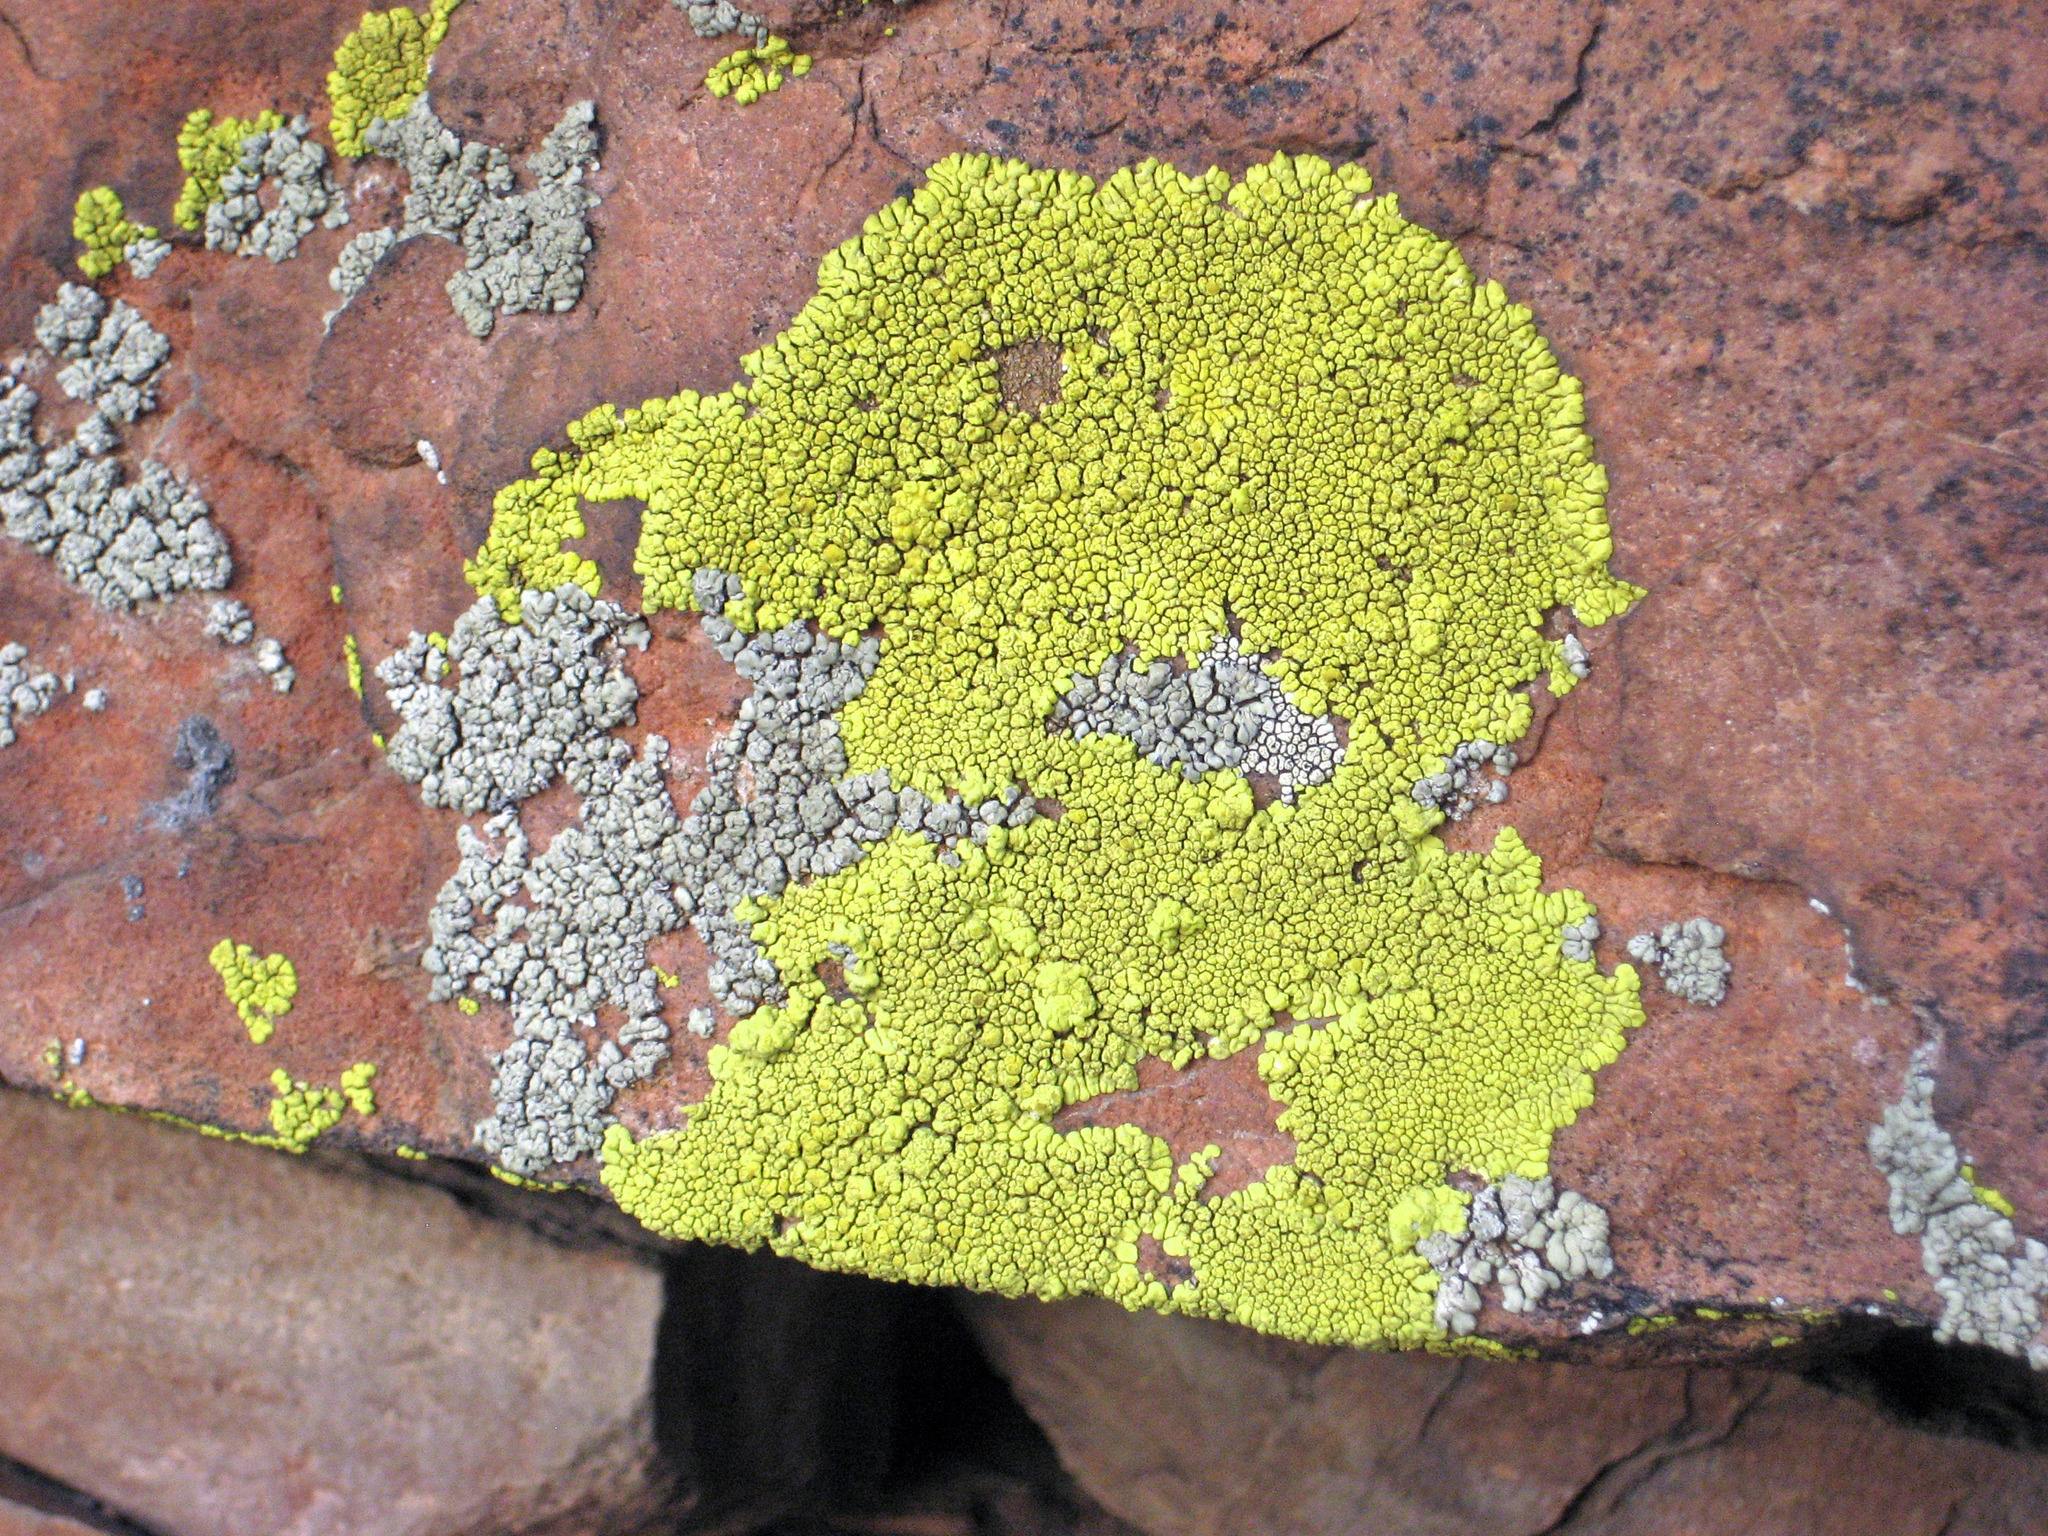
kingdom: Fungi
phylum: Ascomycota
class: Lecanoromycetes
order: Acarosporales
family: Acarosporaceae
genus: Pleopsidium
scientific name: Pleopsidium oxytonum
